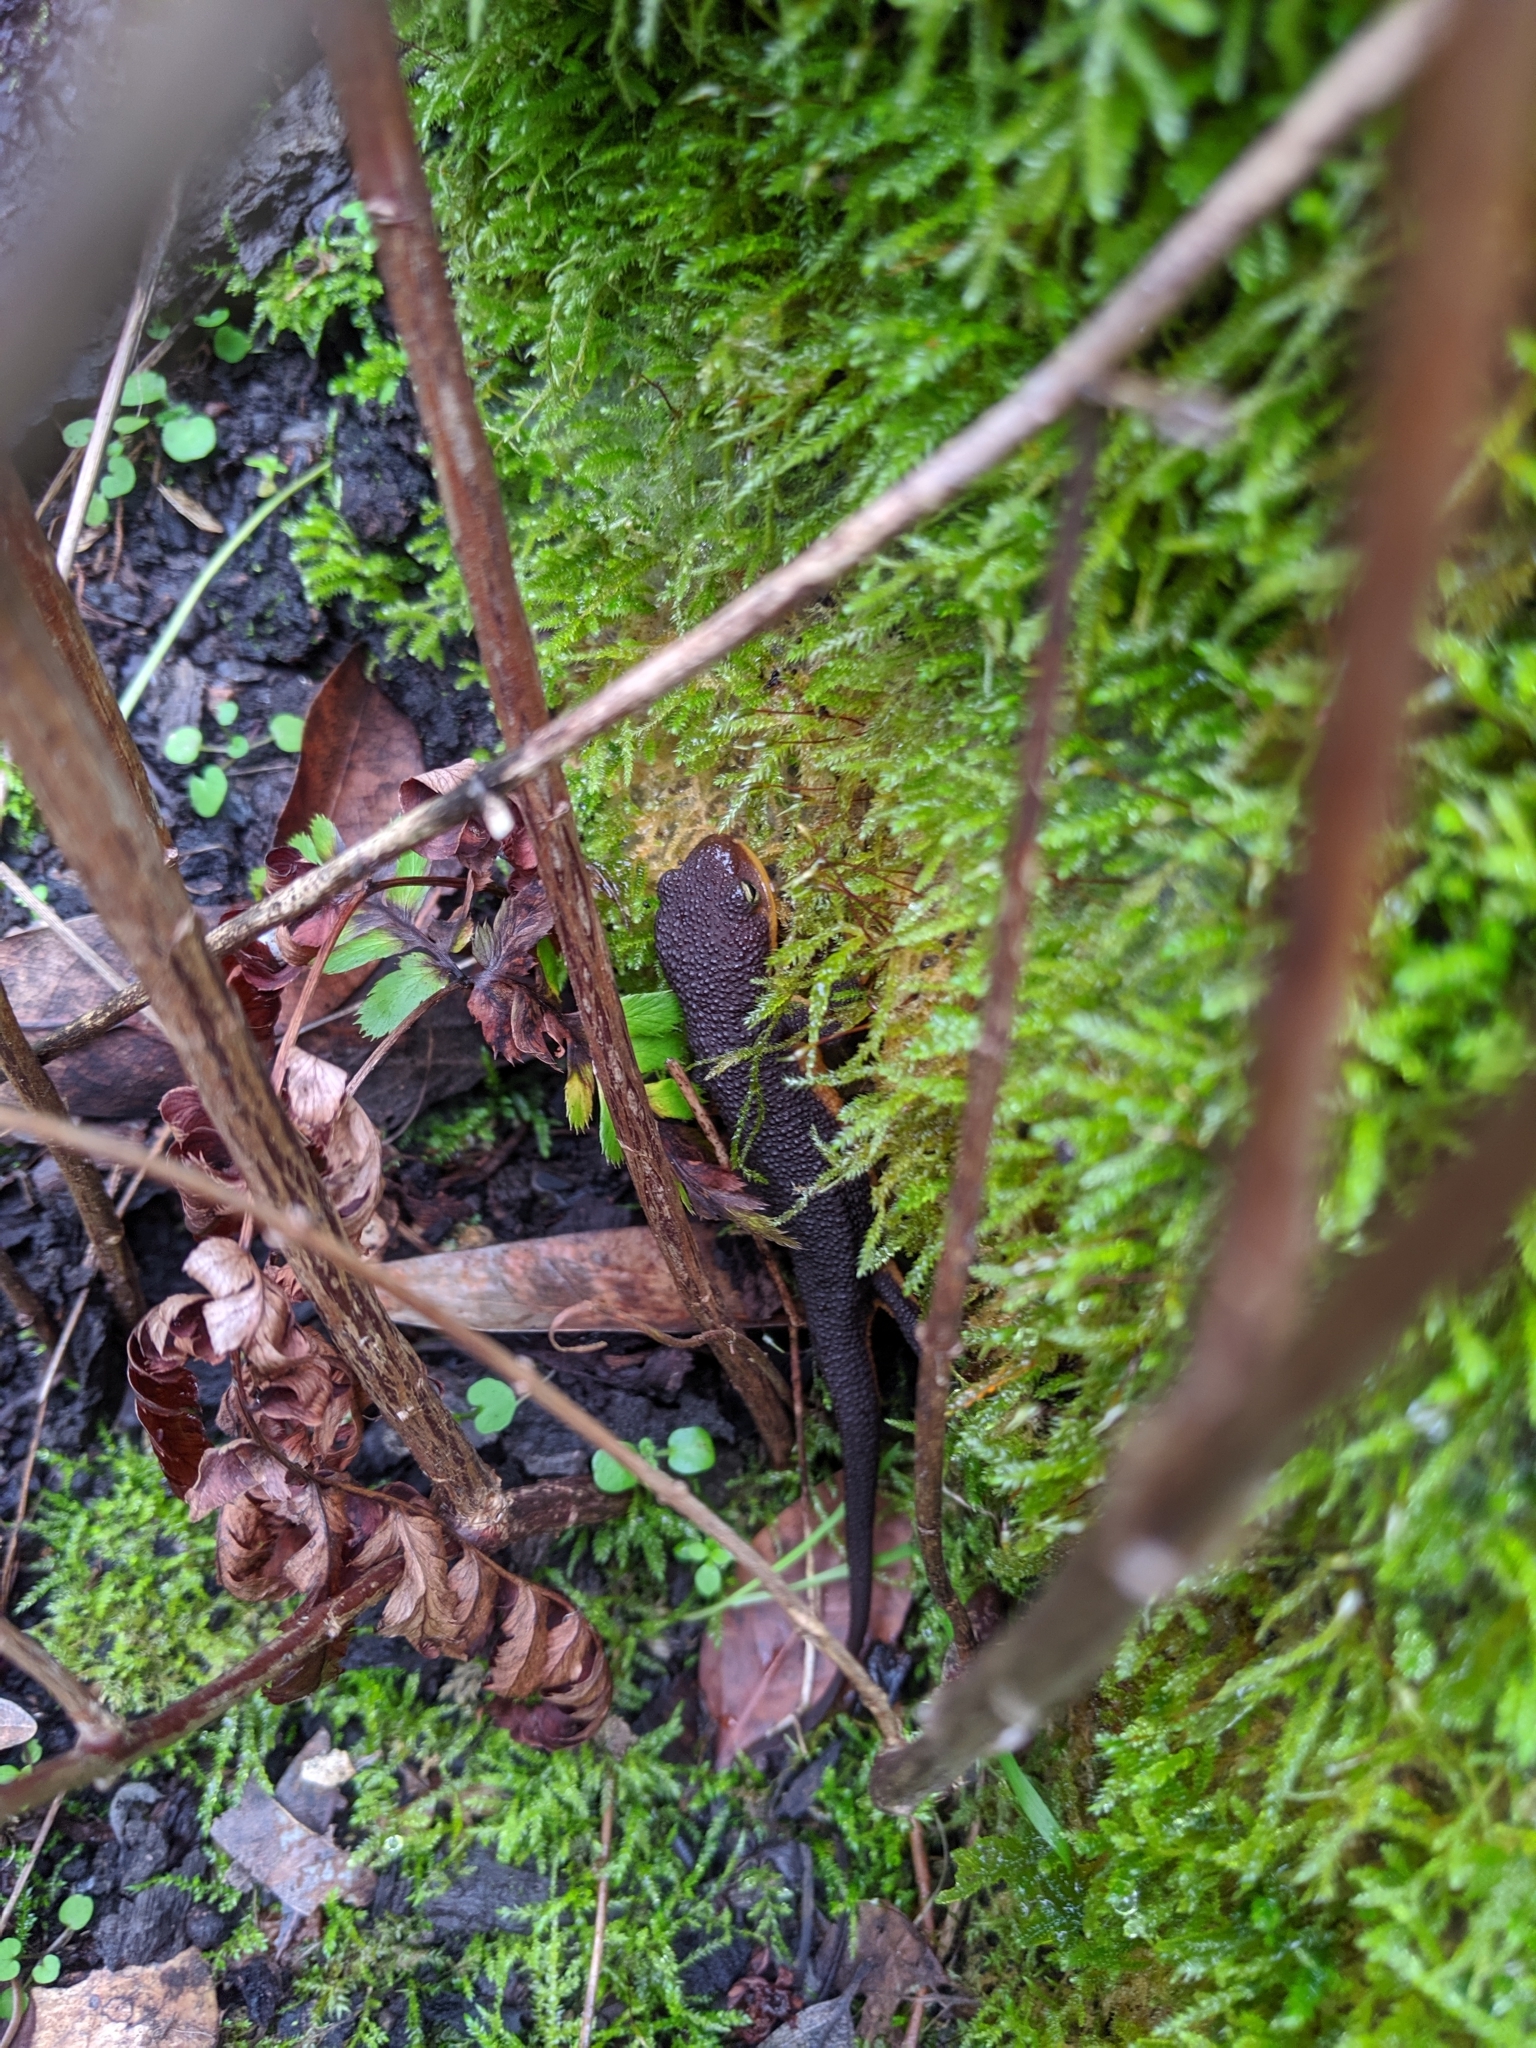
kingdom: Animalia
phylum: Chordata
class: Amphibia
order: Caudata
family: Salamandridae
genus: Taricha
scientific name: Taricha torosa
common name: California newt
